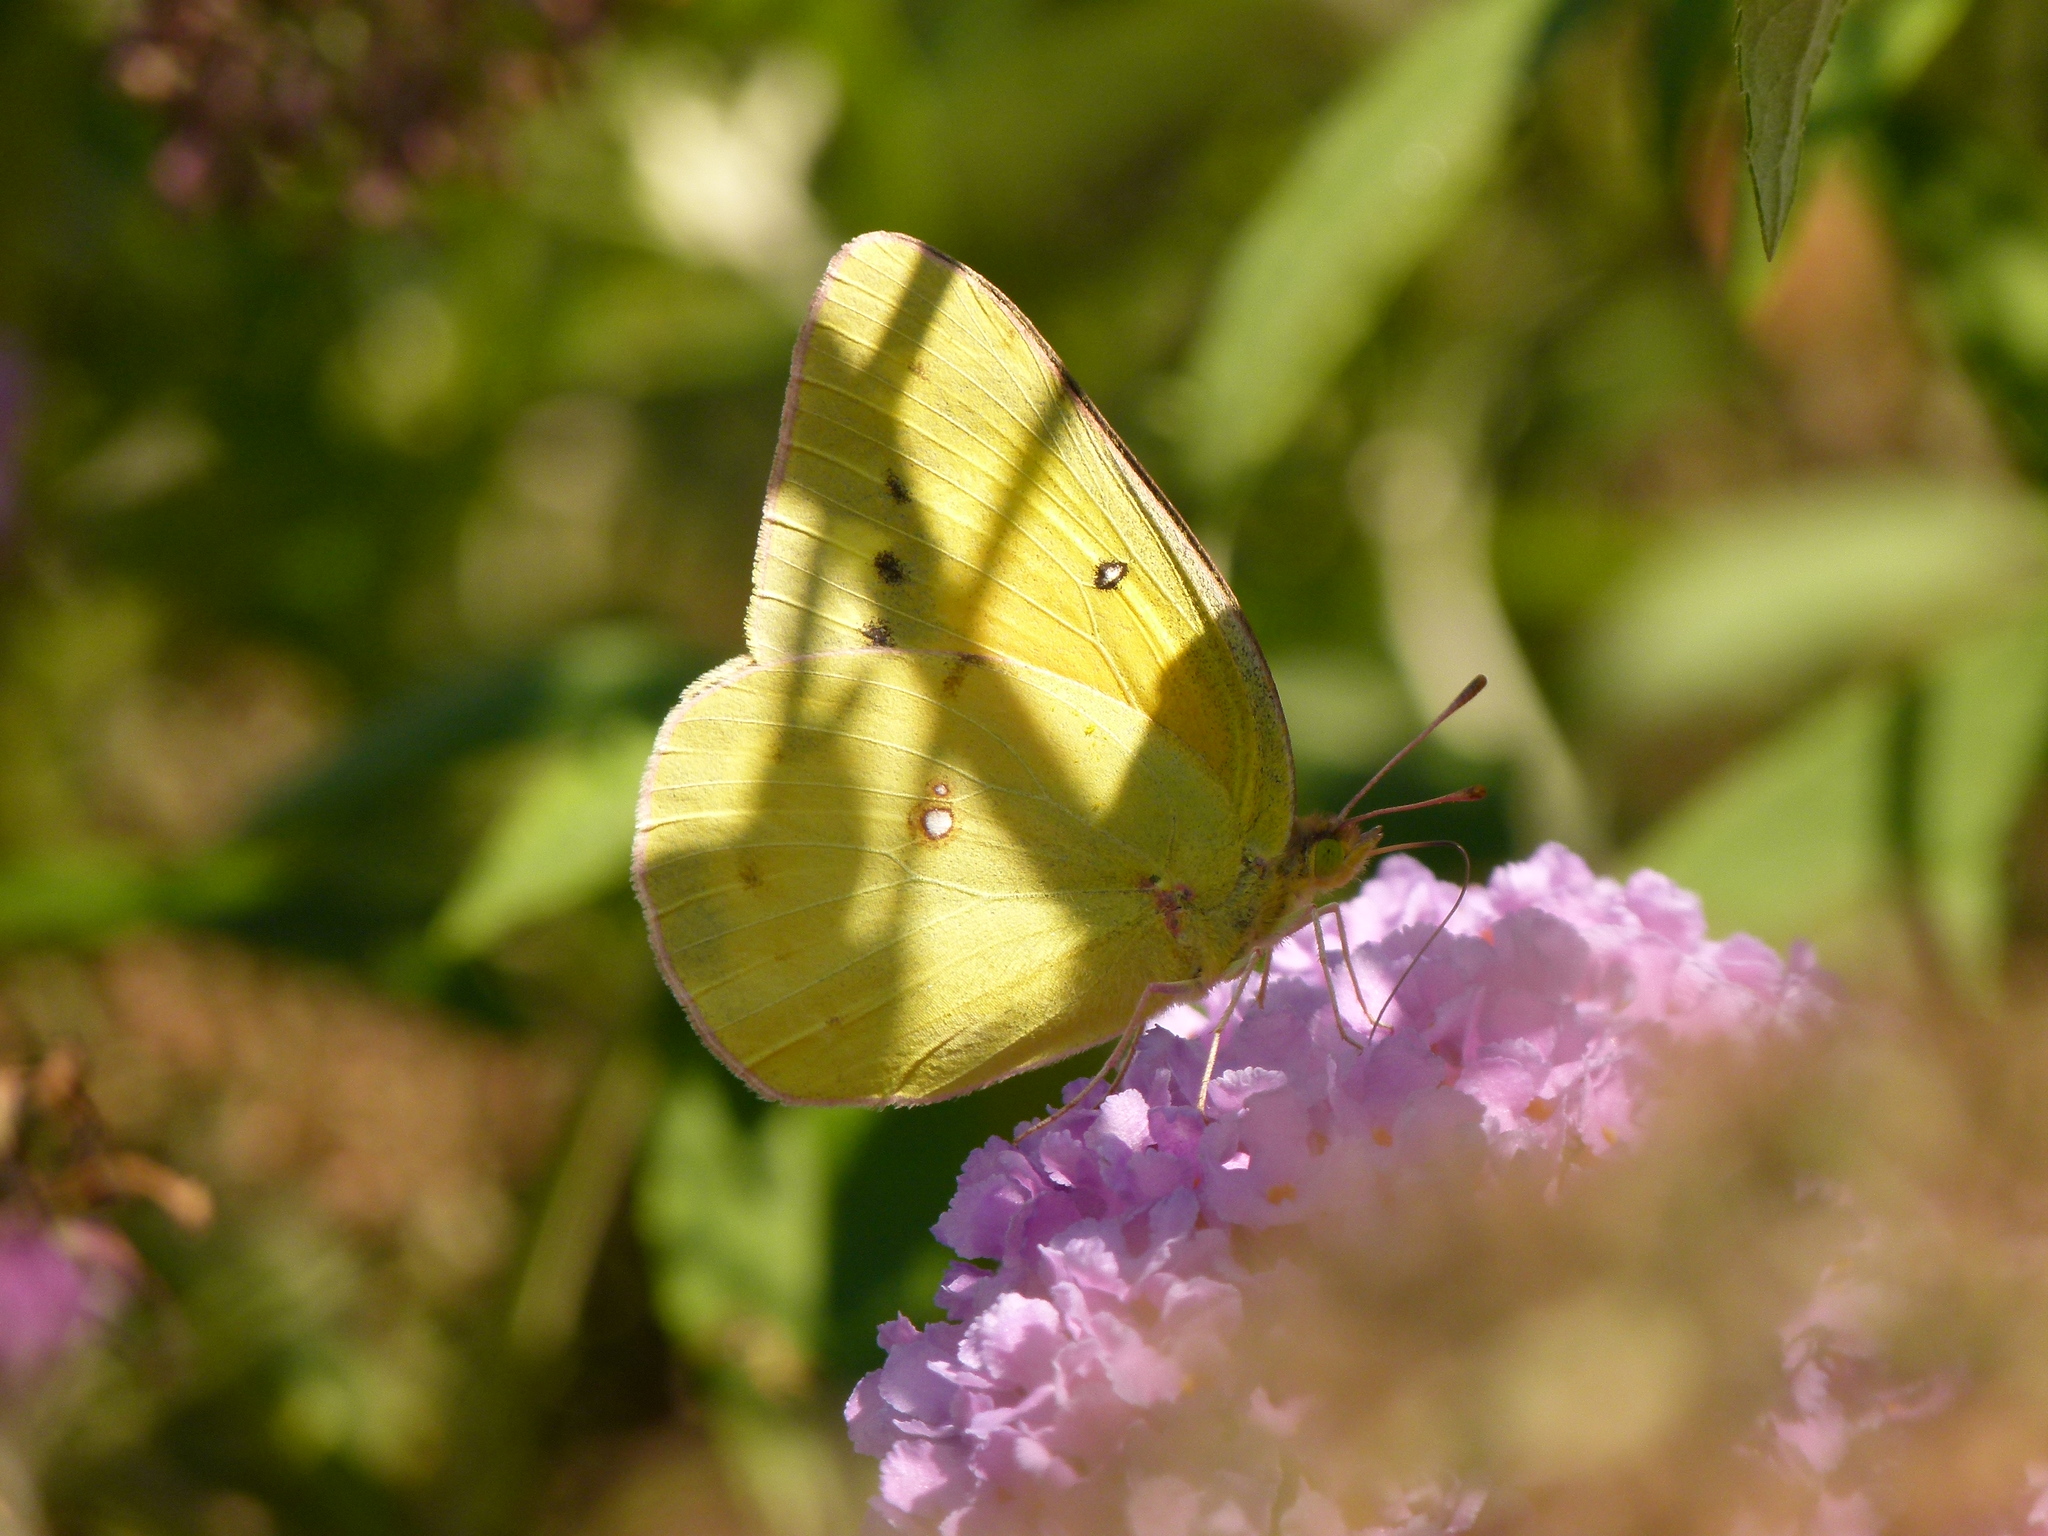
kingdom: Animalia
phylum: Arthropoda
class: Insecta
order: Lepidoptera
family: Pieridae
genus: Colias
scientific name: Colias eurytheme
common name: Alfalfa butterfly
